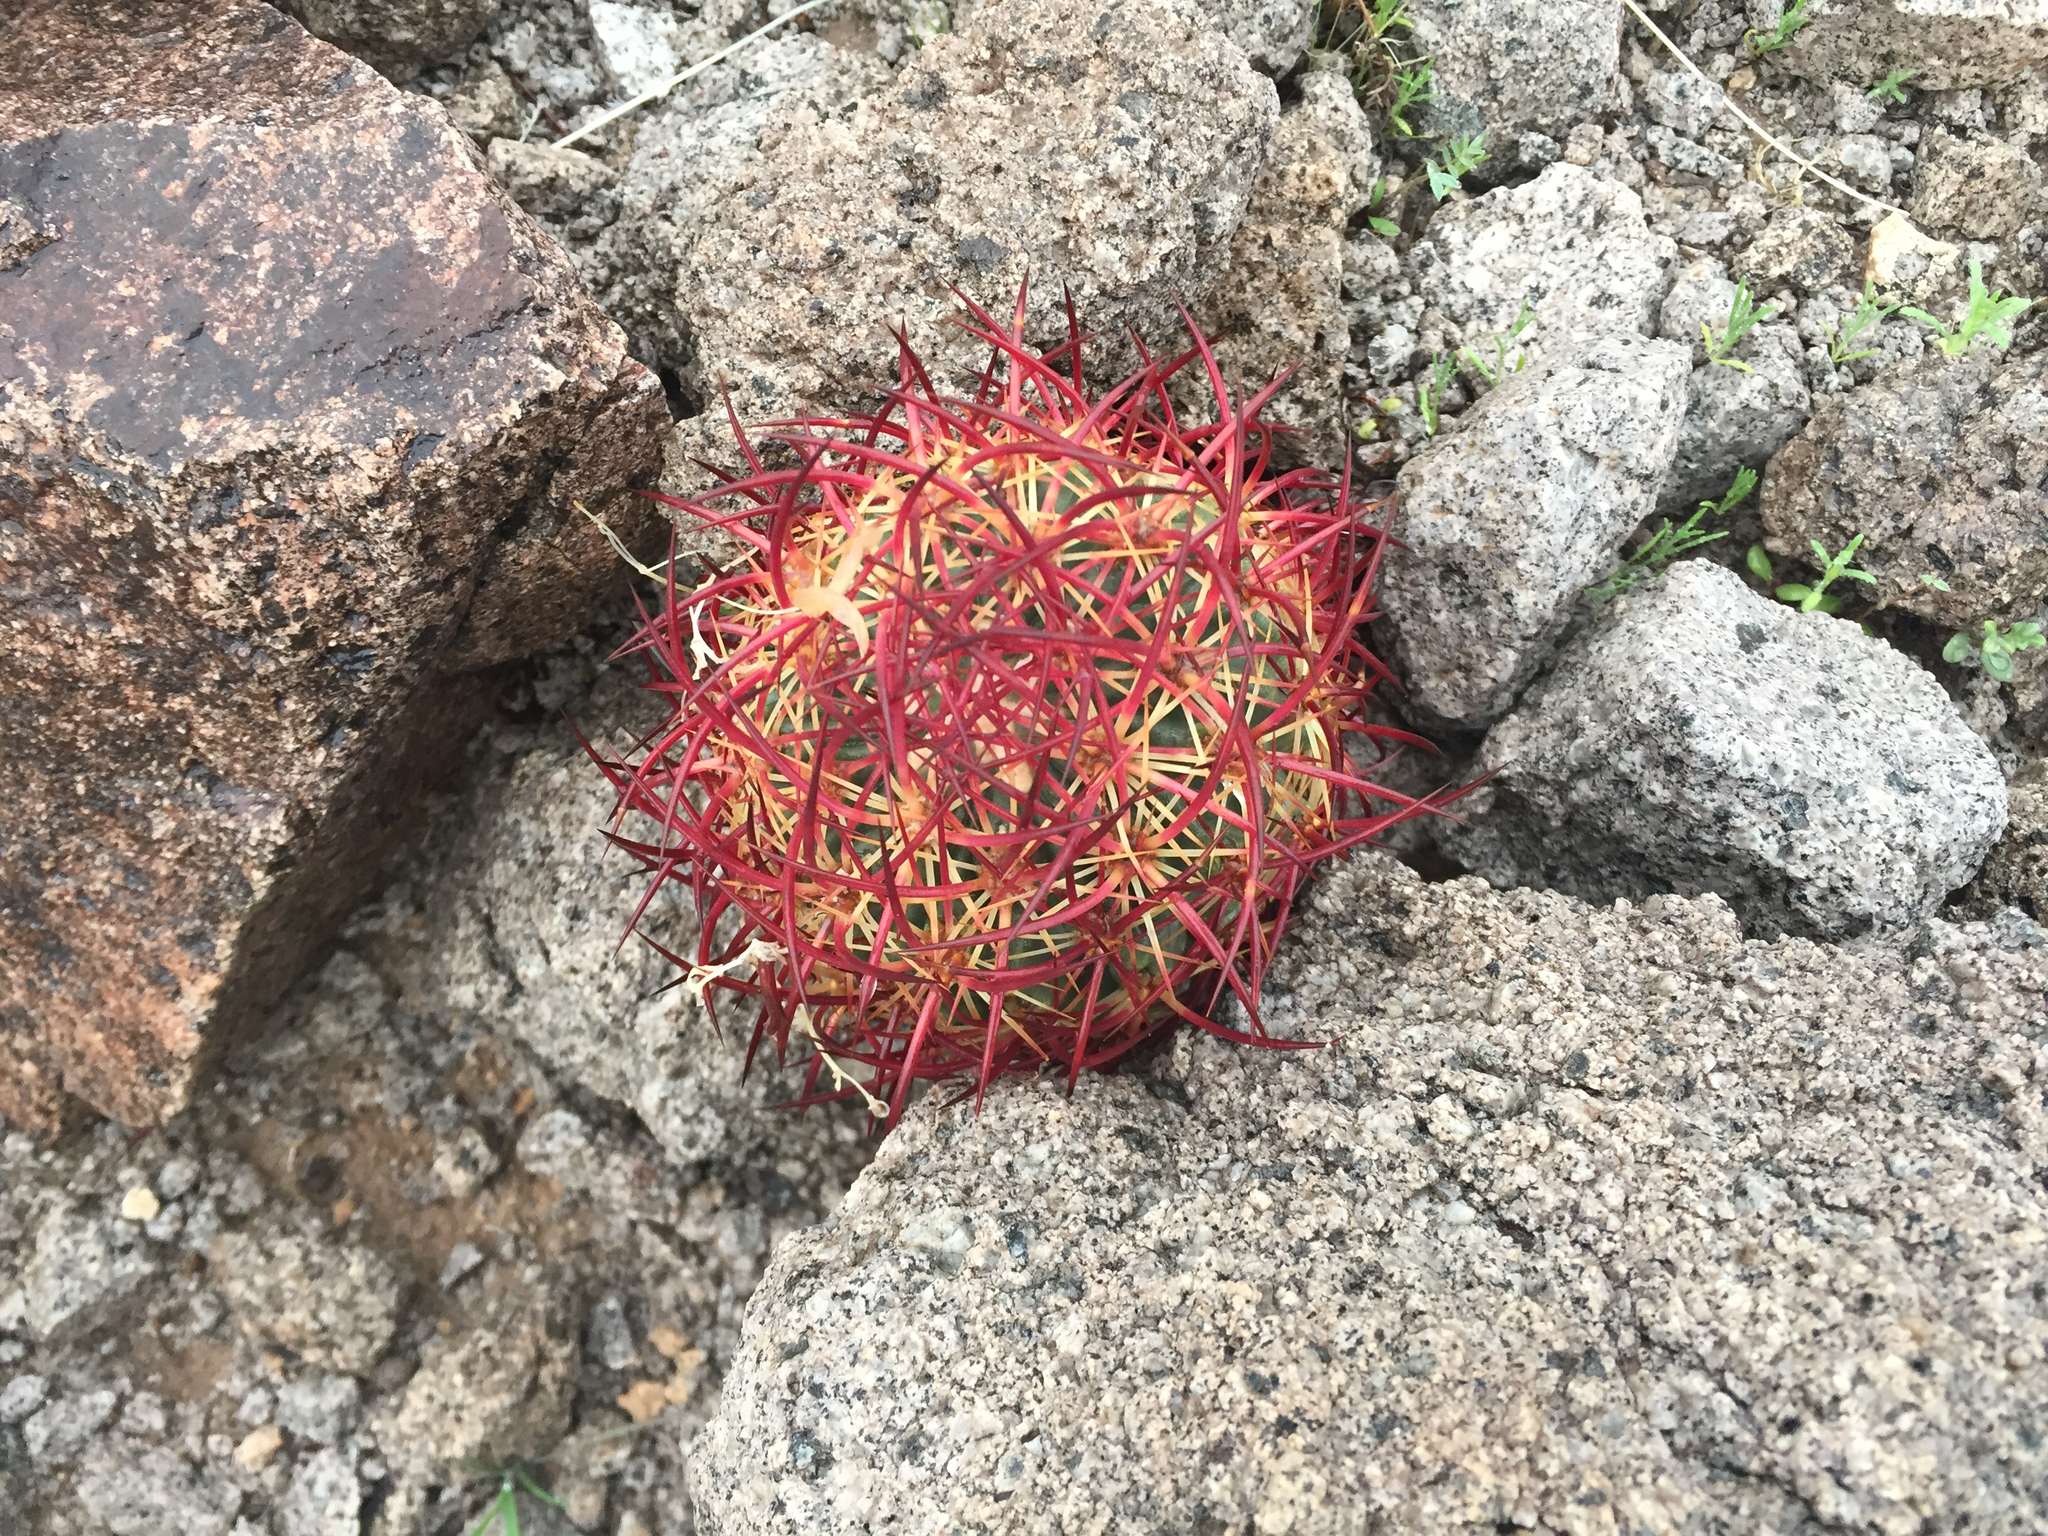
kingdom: Plantae
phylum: Tracheophyta
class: Magnoliopsida
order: Caryophyllales
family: Cactaceae
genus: Sclerocactus
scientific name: Sclerocactus johnsonii
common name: Eight-spine fishhook cactus
